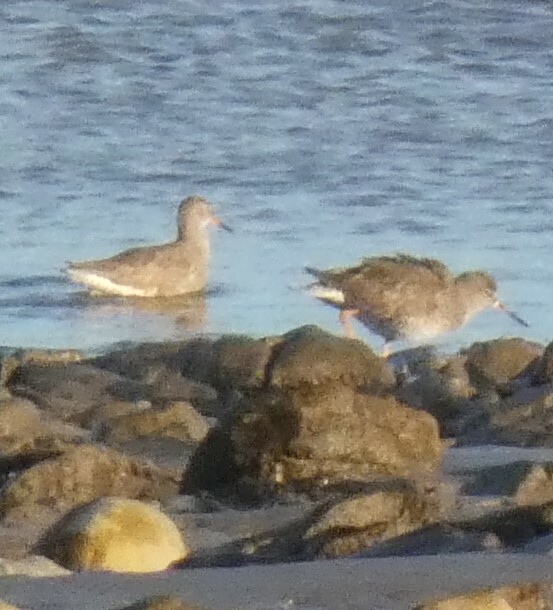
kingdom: Animalia
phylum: Chordata
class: Aves
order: Charadriiformes
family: Scolopacidae
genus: Tringa
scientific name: Tringa totanus
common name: Common redshank
